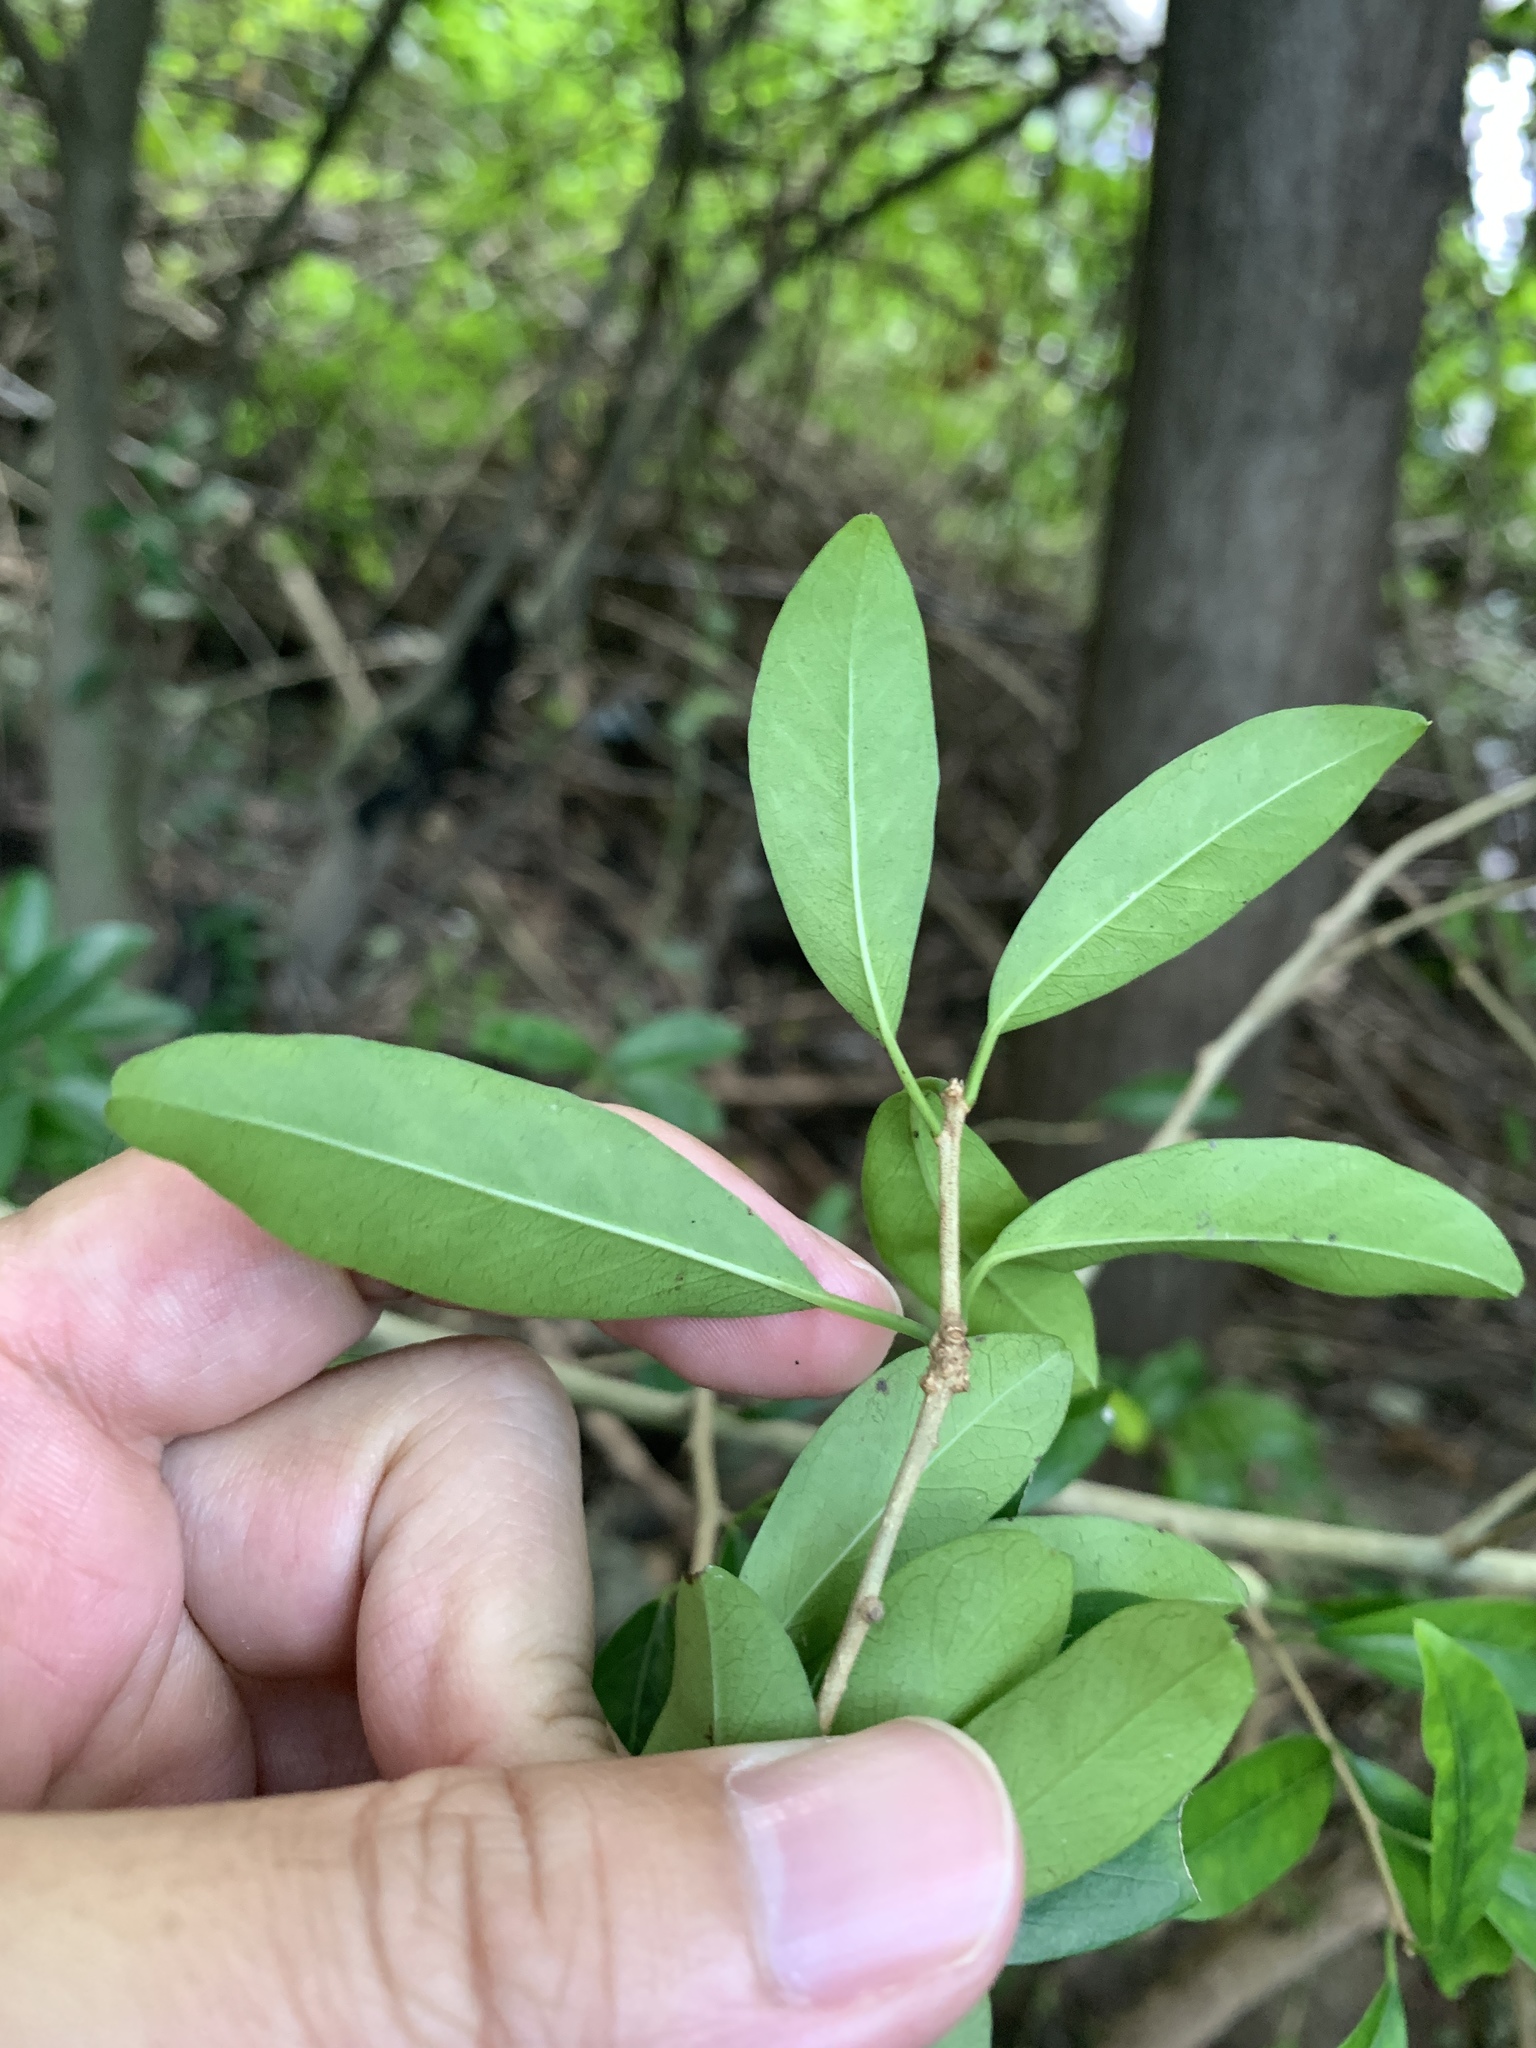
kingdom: Plantae
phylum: Tracheophyta
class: Magnoliopsida
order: Rosales
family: Moraceae
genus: Maclura
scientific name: Maclura cochinchinensis
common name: Cockspurthorn
